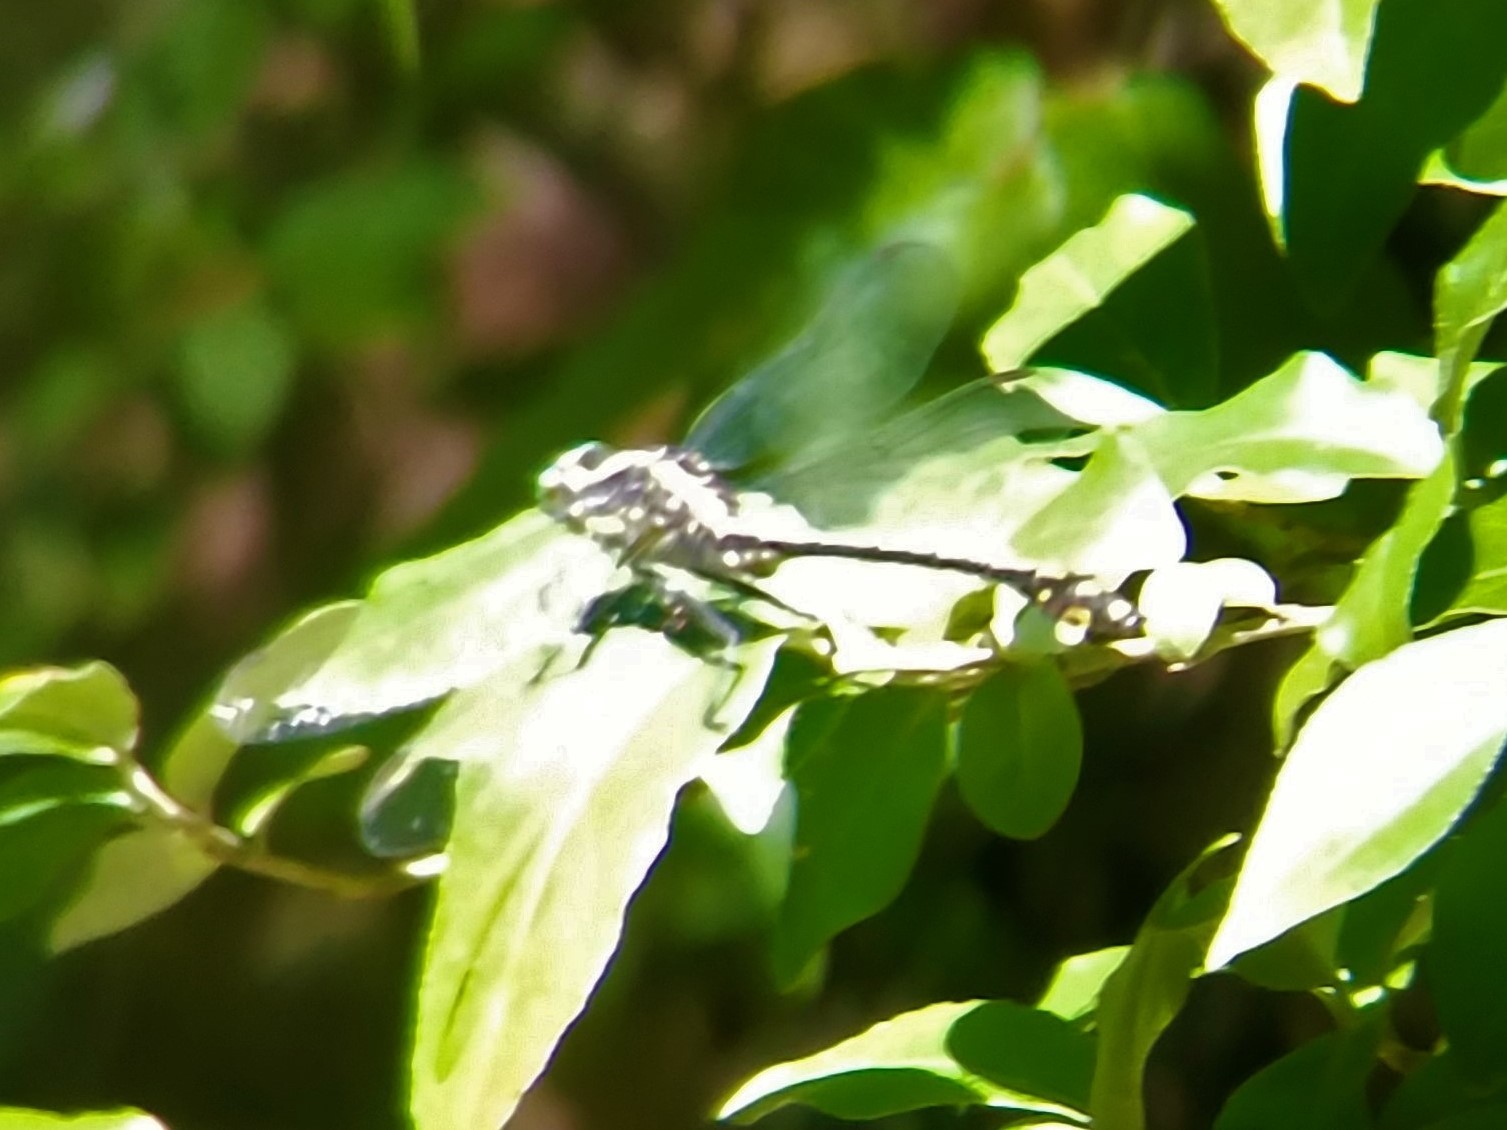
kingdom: Animalia
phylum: Arthropoda
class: Insecta
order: Odonata
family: Gomphidae
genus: Dromogomphus
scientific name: Dromogomphus spinosus
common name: Black-shouldered spinyleg
